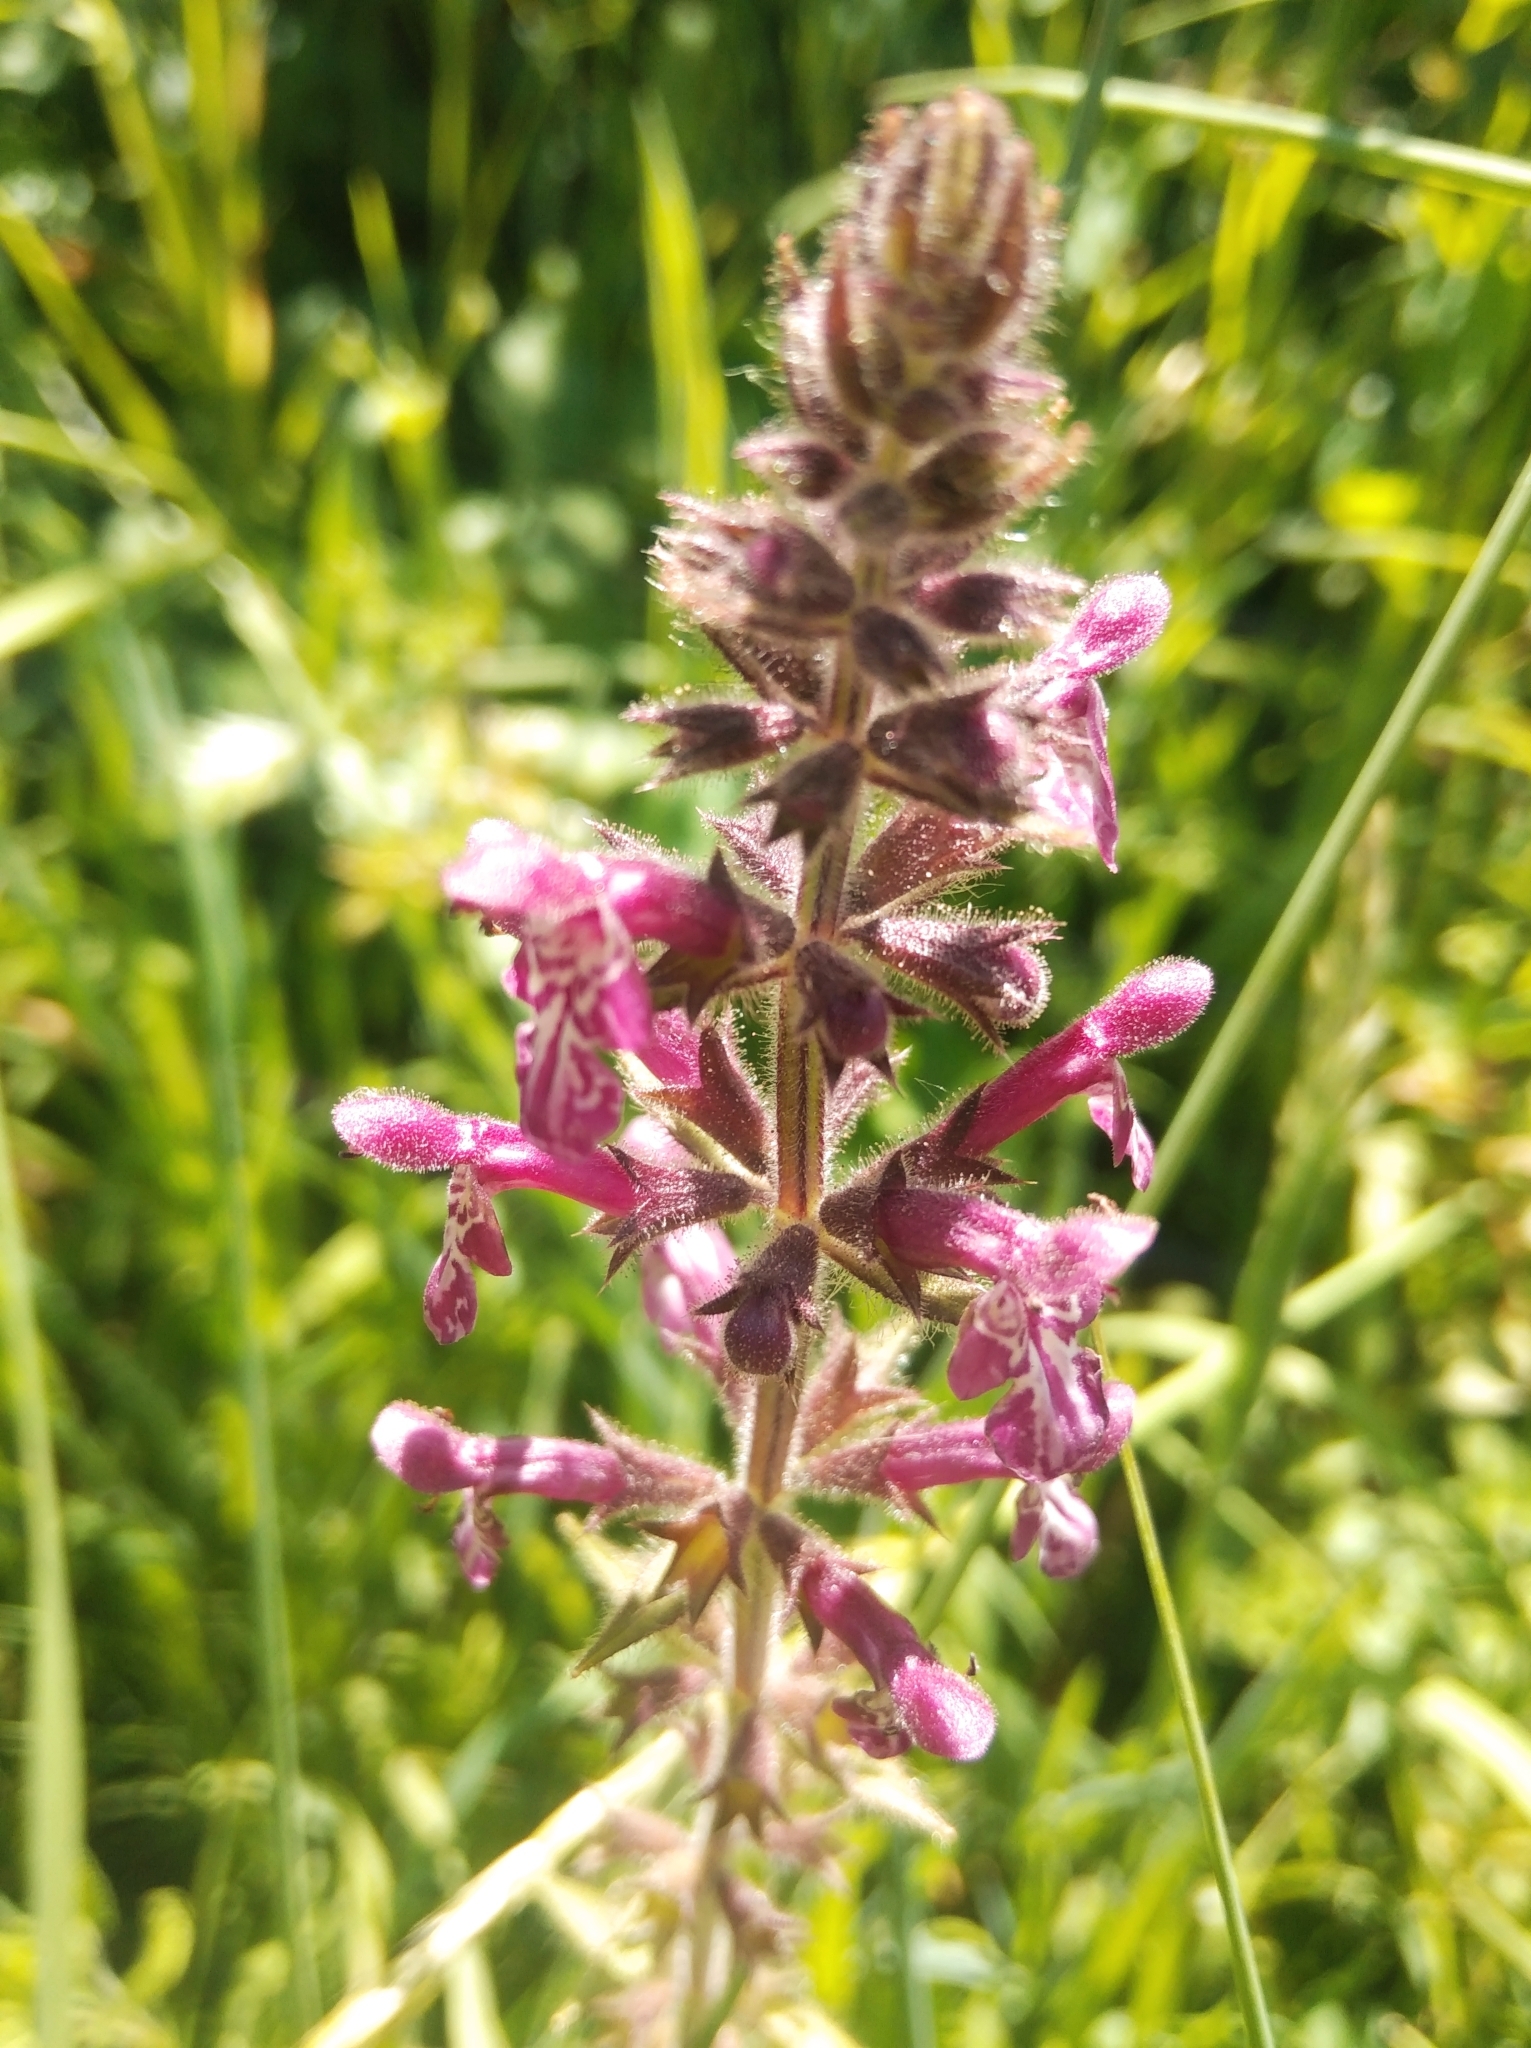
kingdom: Plantae
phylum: Tracheophyta
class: Magnoliopsida
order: Lamiales
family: Lamiaceae
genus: Stachys
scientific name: Stachys sylvatica
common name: Hedge woundwort
